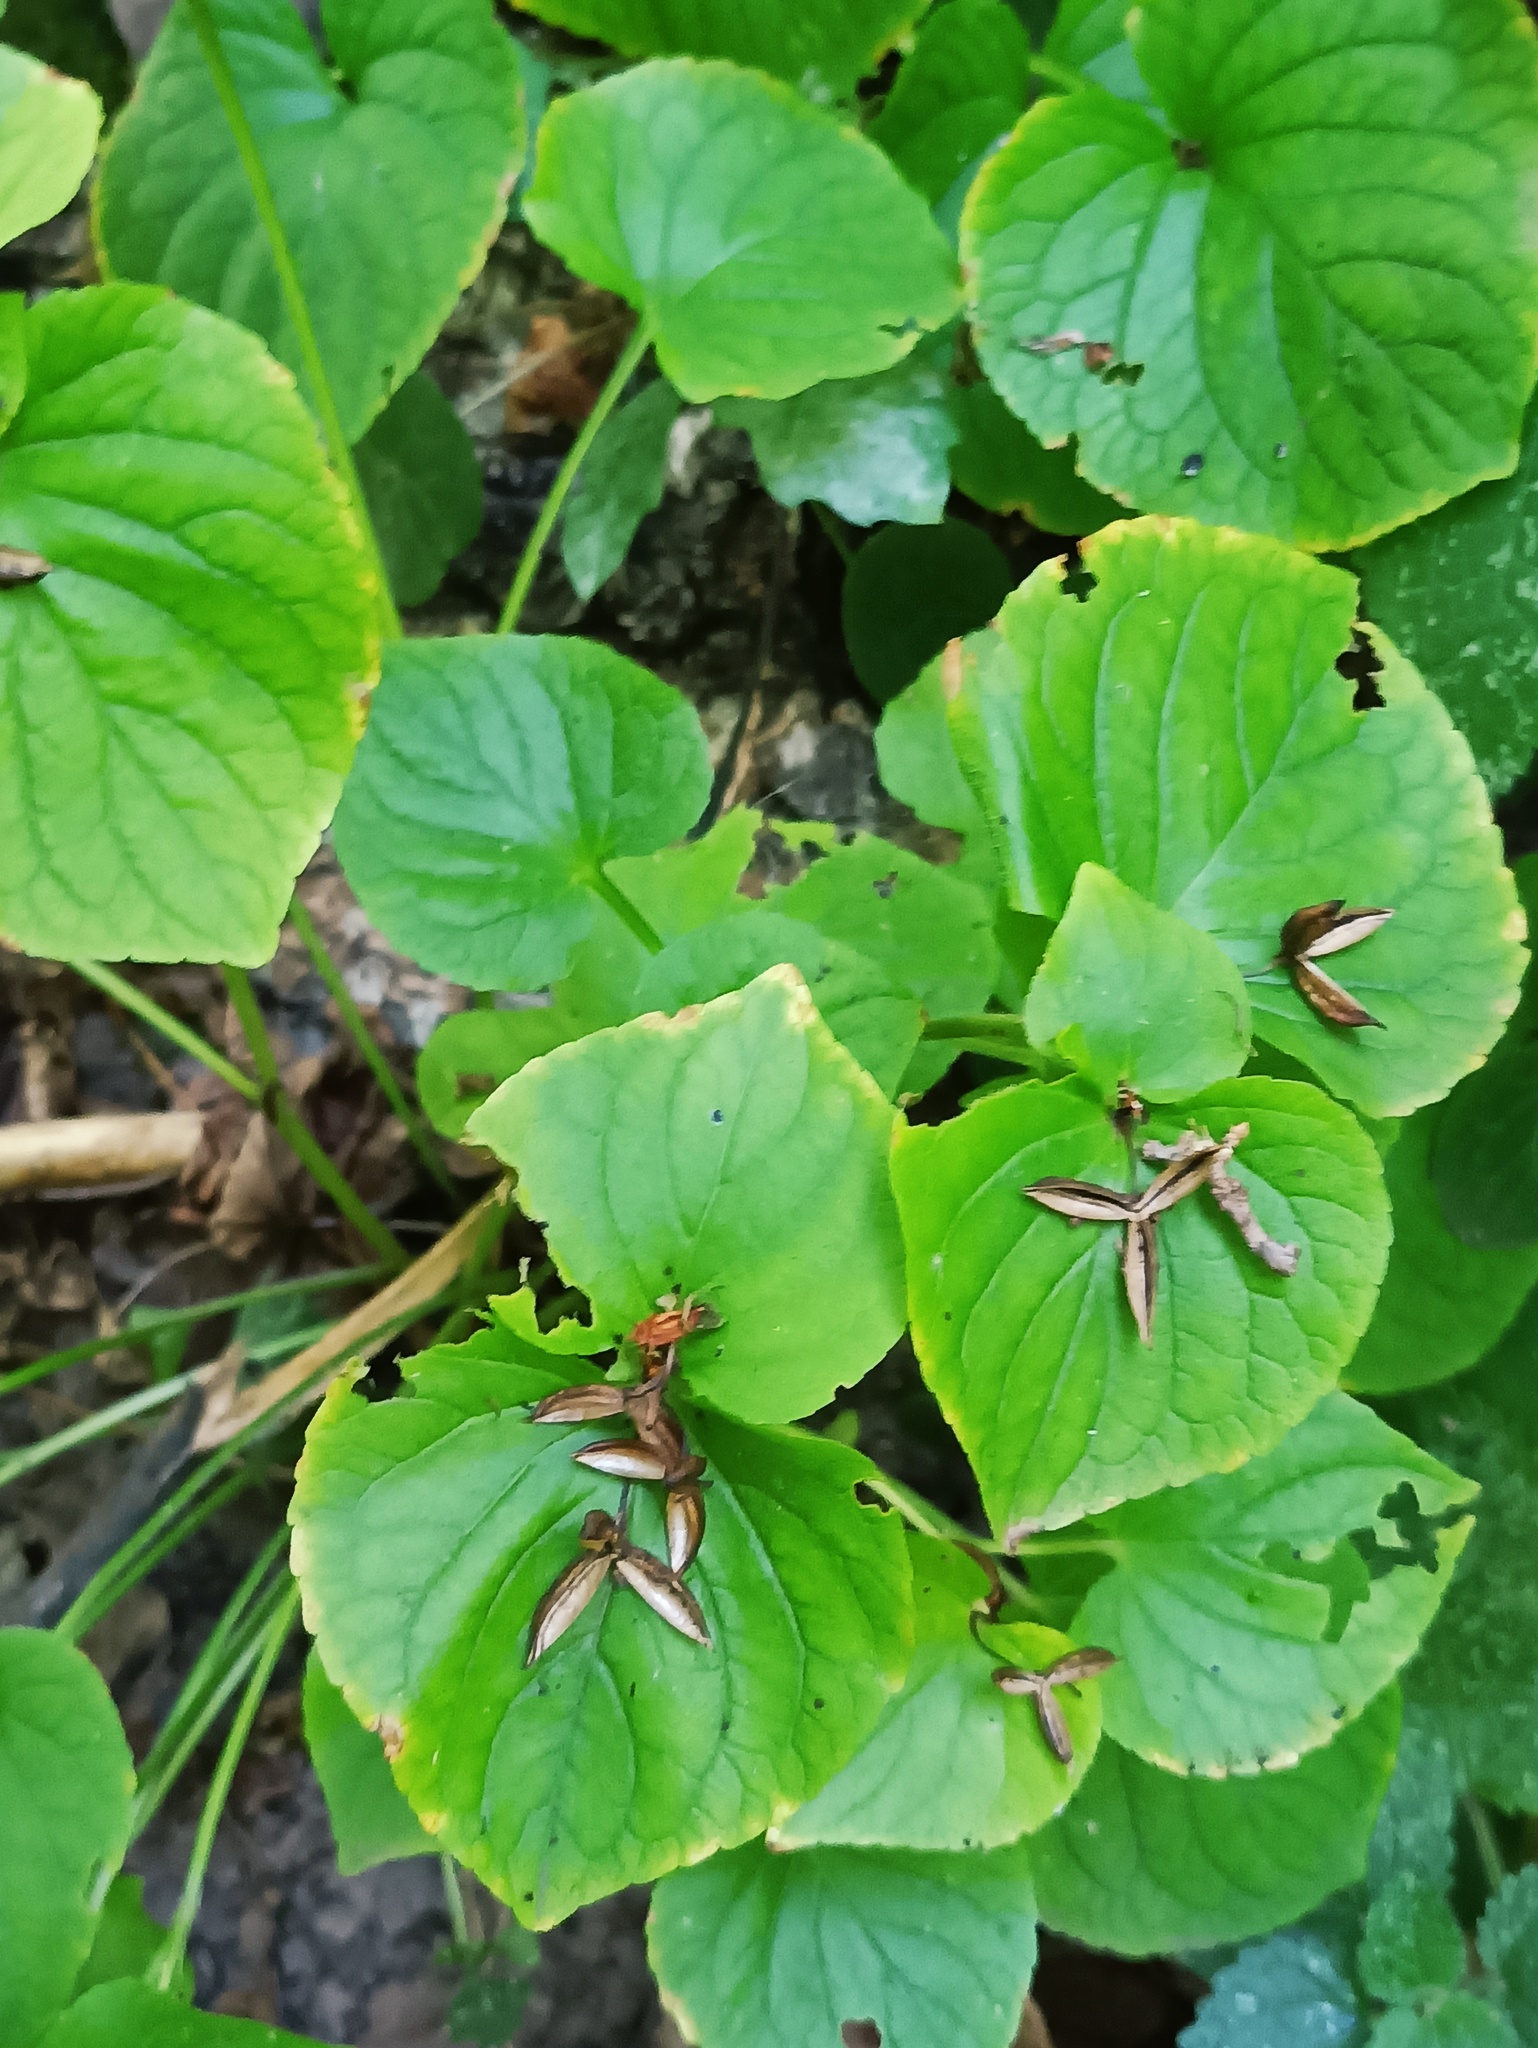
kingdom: Plantae
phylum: Tracheophyta
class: Magnoliopsida
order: Malpighiales
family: Violaceae
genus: Viola
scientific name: Viola mirabilis
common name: Wonder violet
